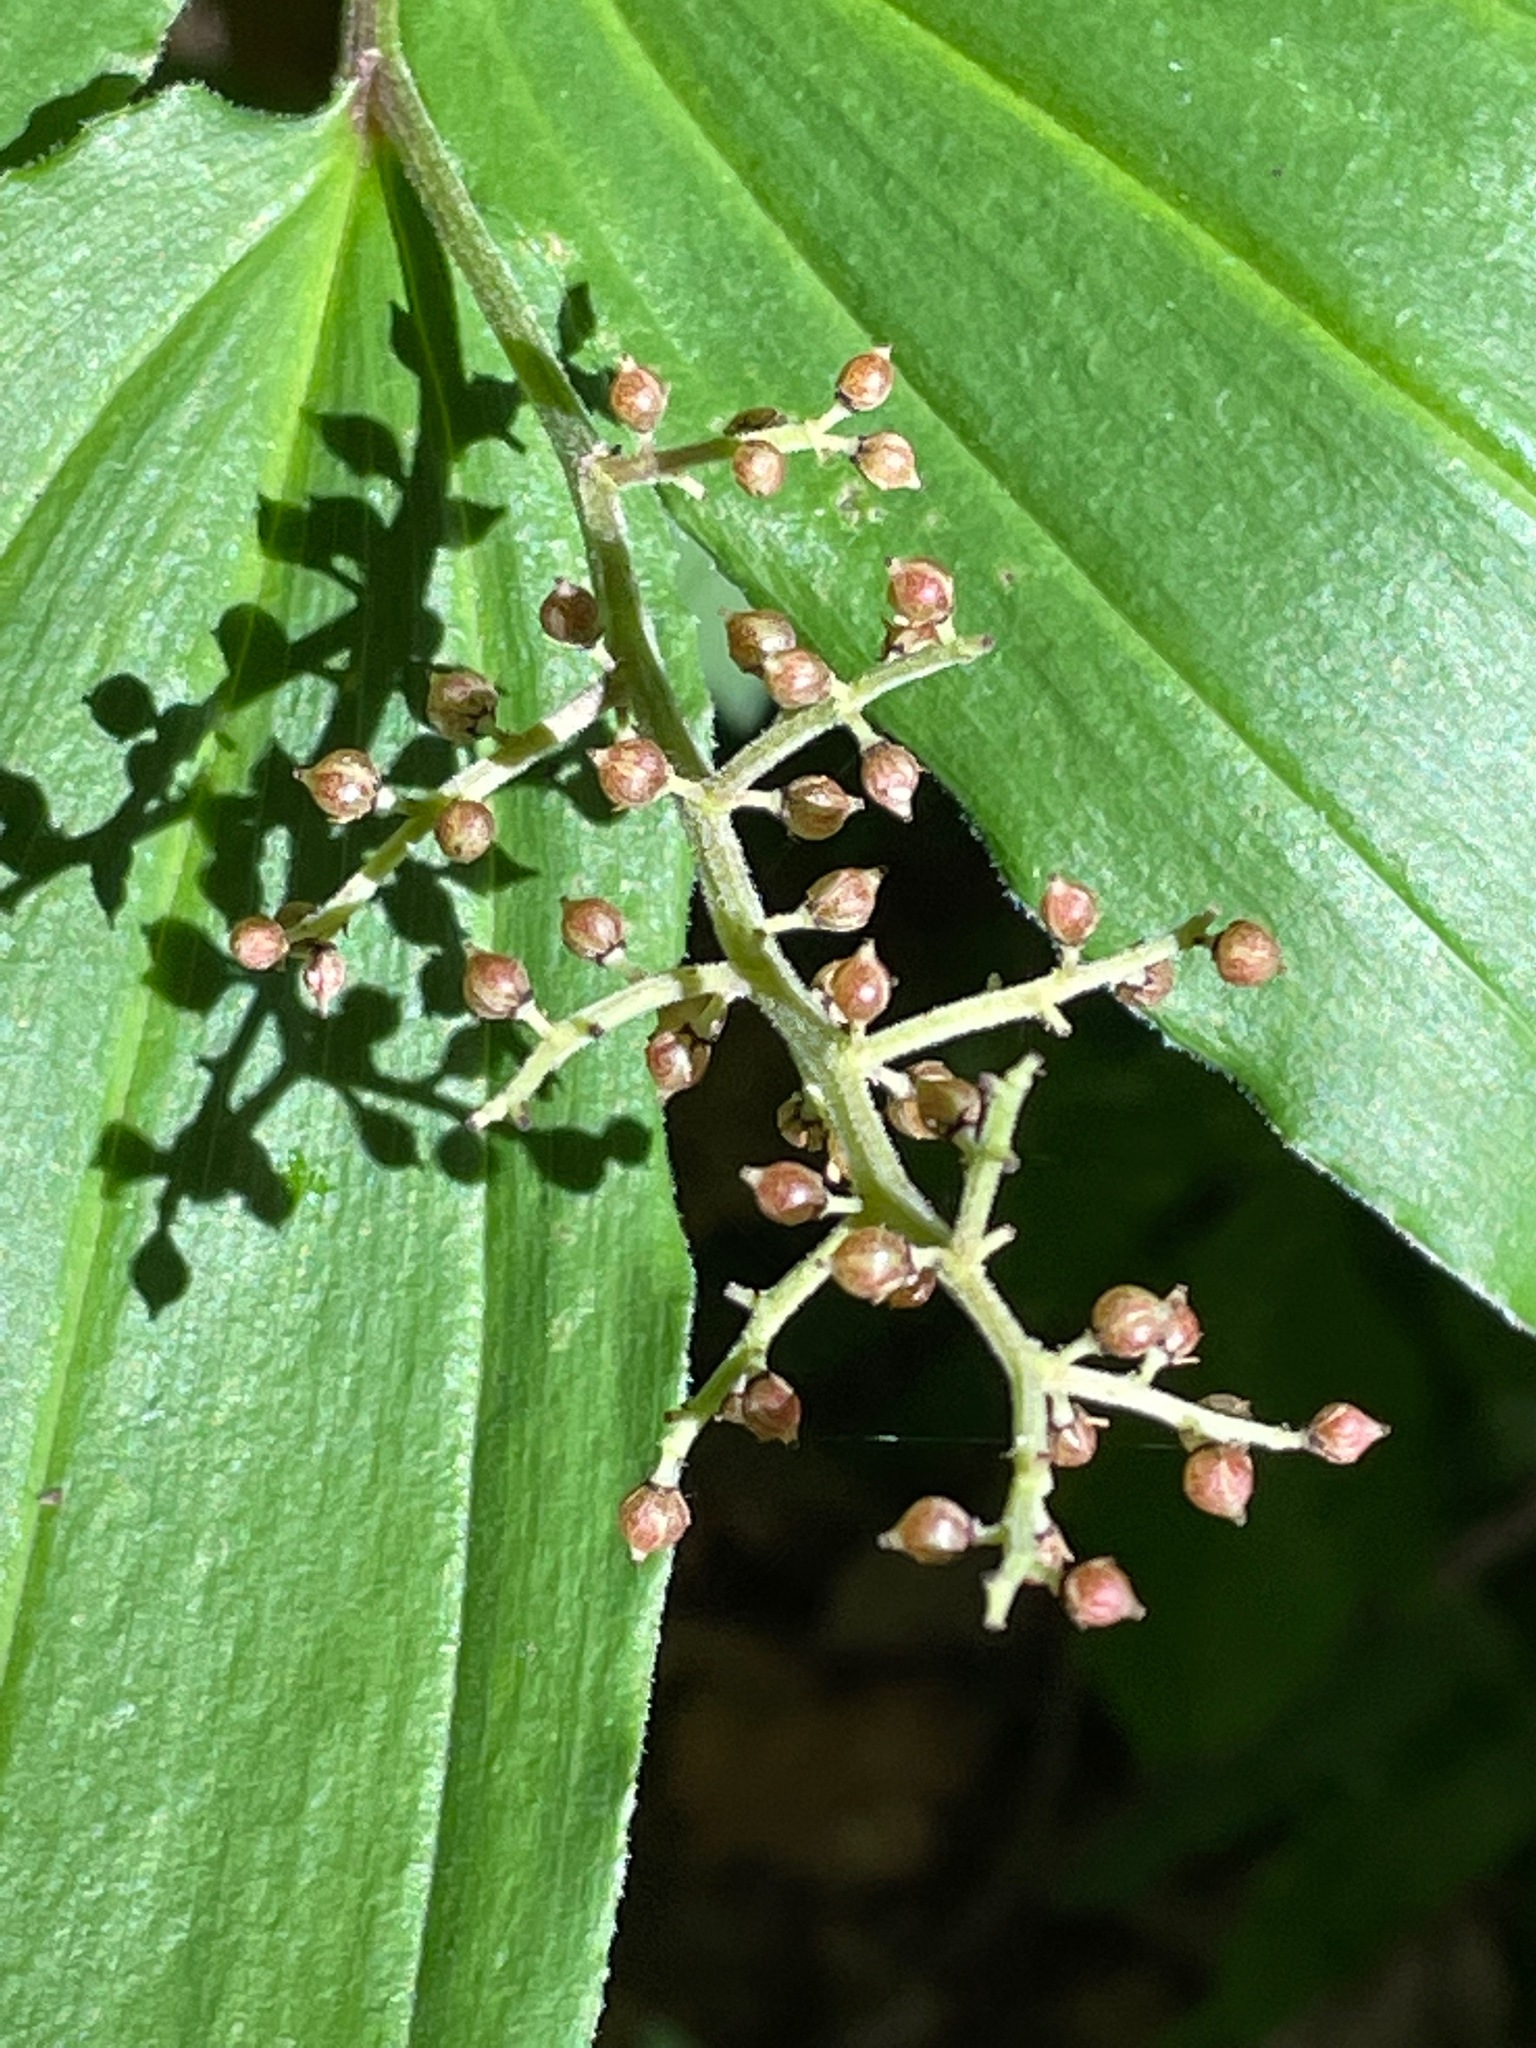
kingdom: Plantae
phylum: Tracheophyta
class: Liliopsida
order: Asparagales
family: Asparagaceae
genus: Maianthemum
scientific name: Maianthemum racemosum
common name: False spikenard
